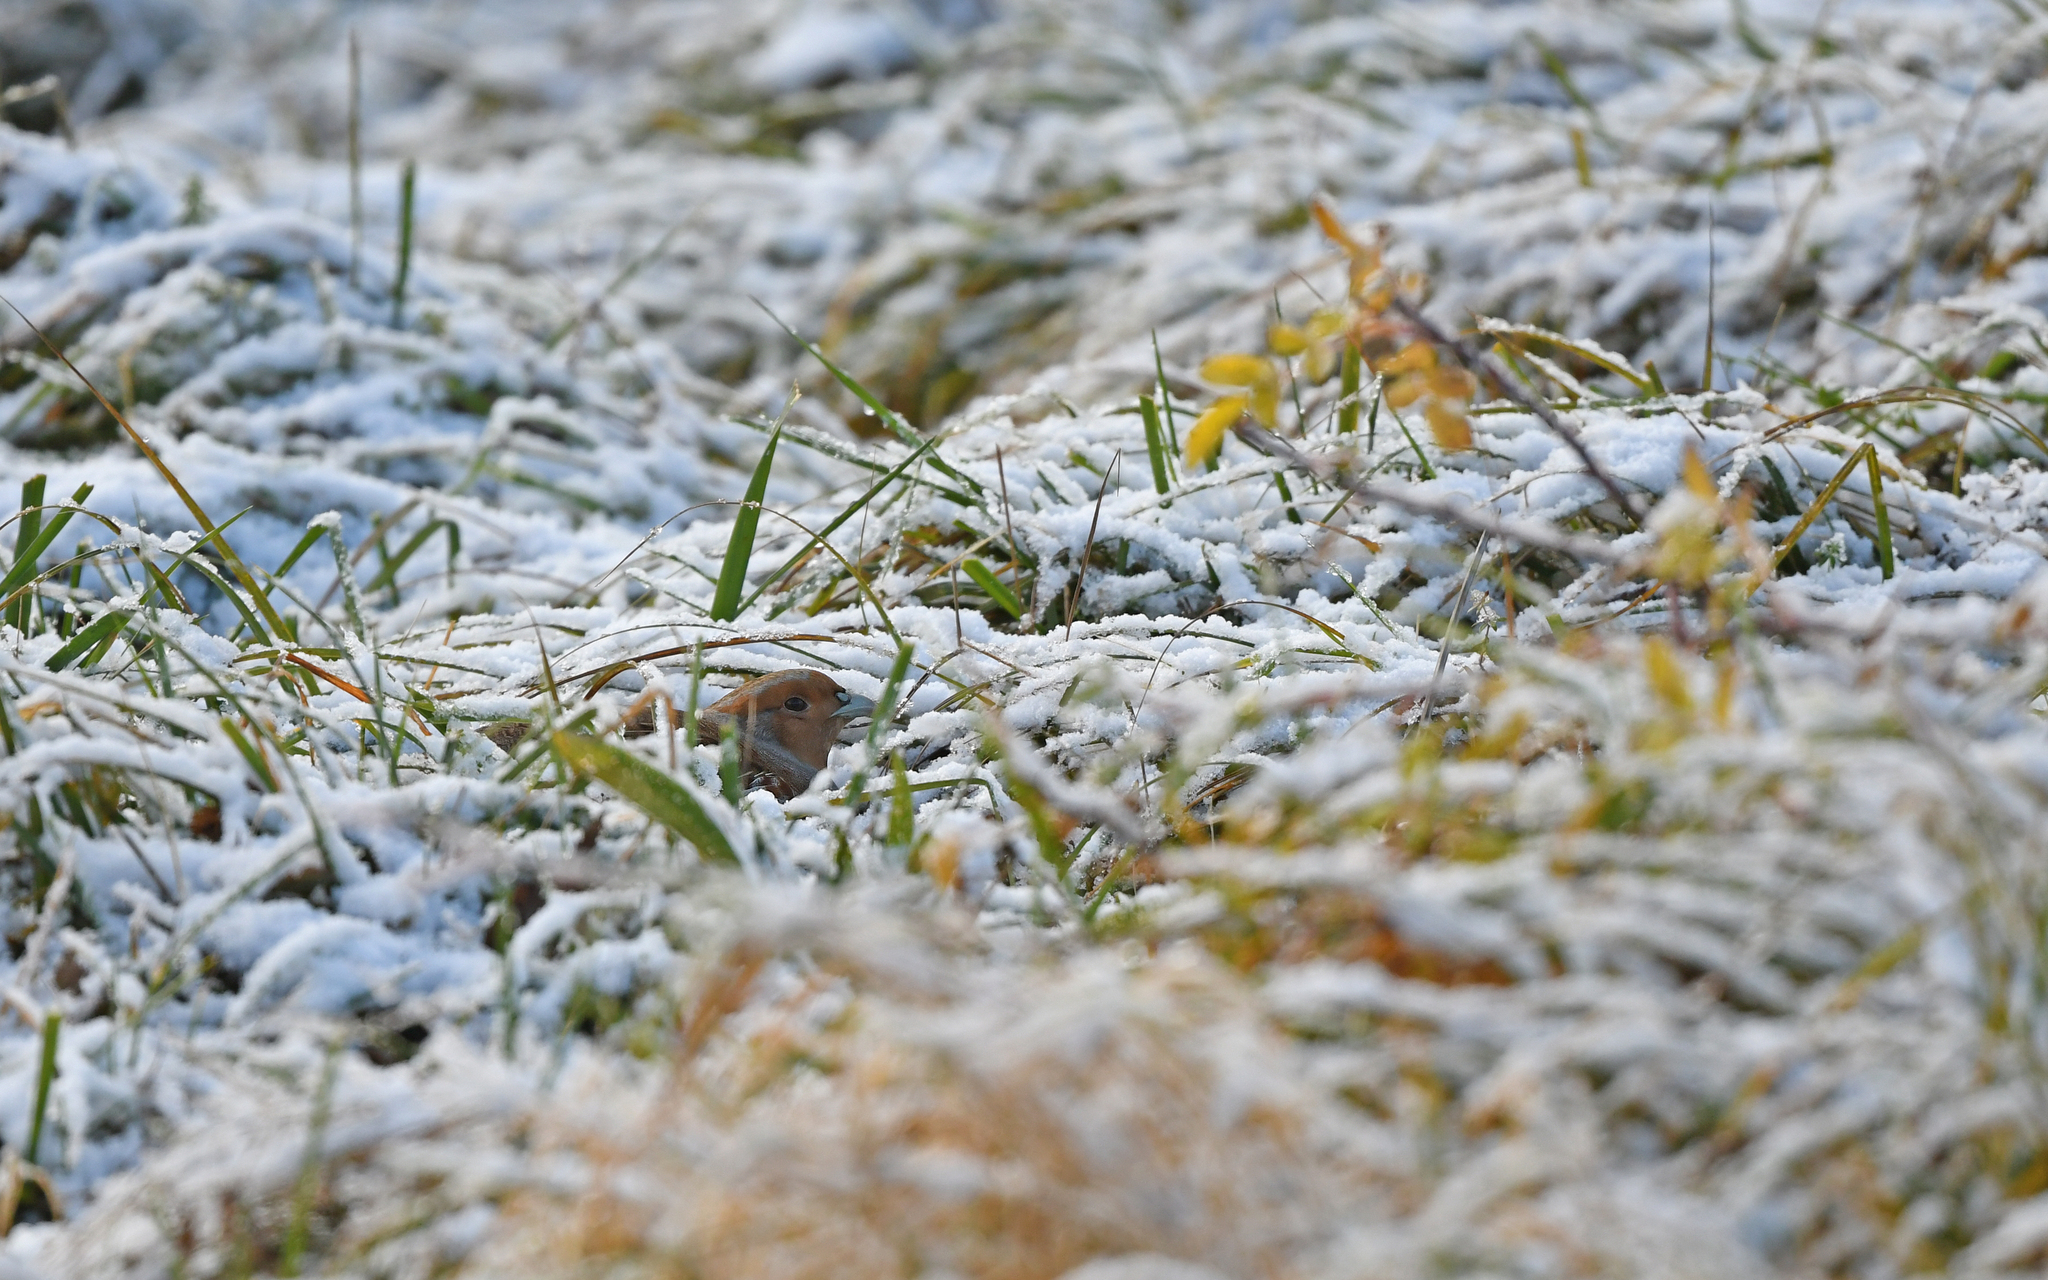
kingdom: Animalia
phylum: Chordata
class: Aves
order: Galliformes
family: Phasianidae
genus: Perdix
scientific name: Perdix perdix
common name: Grey partridge
